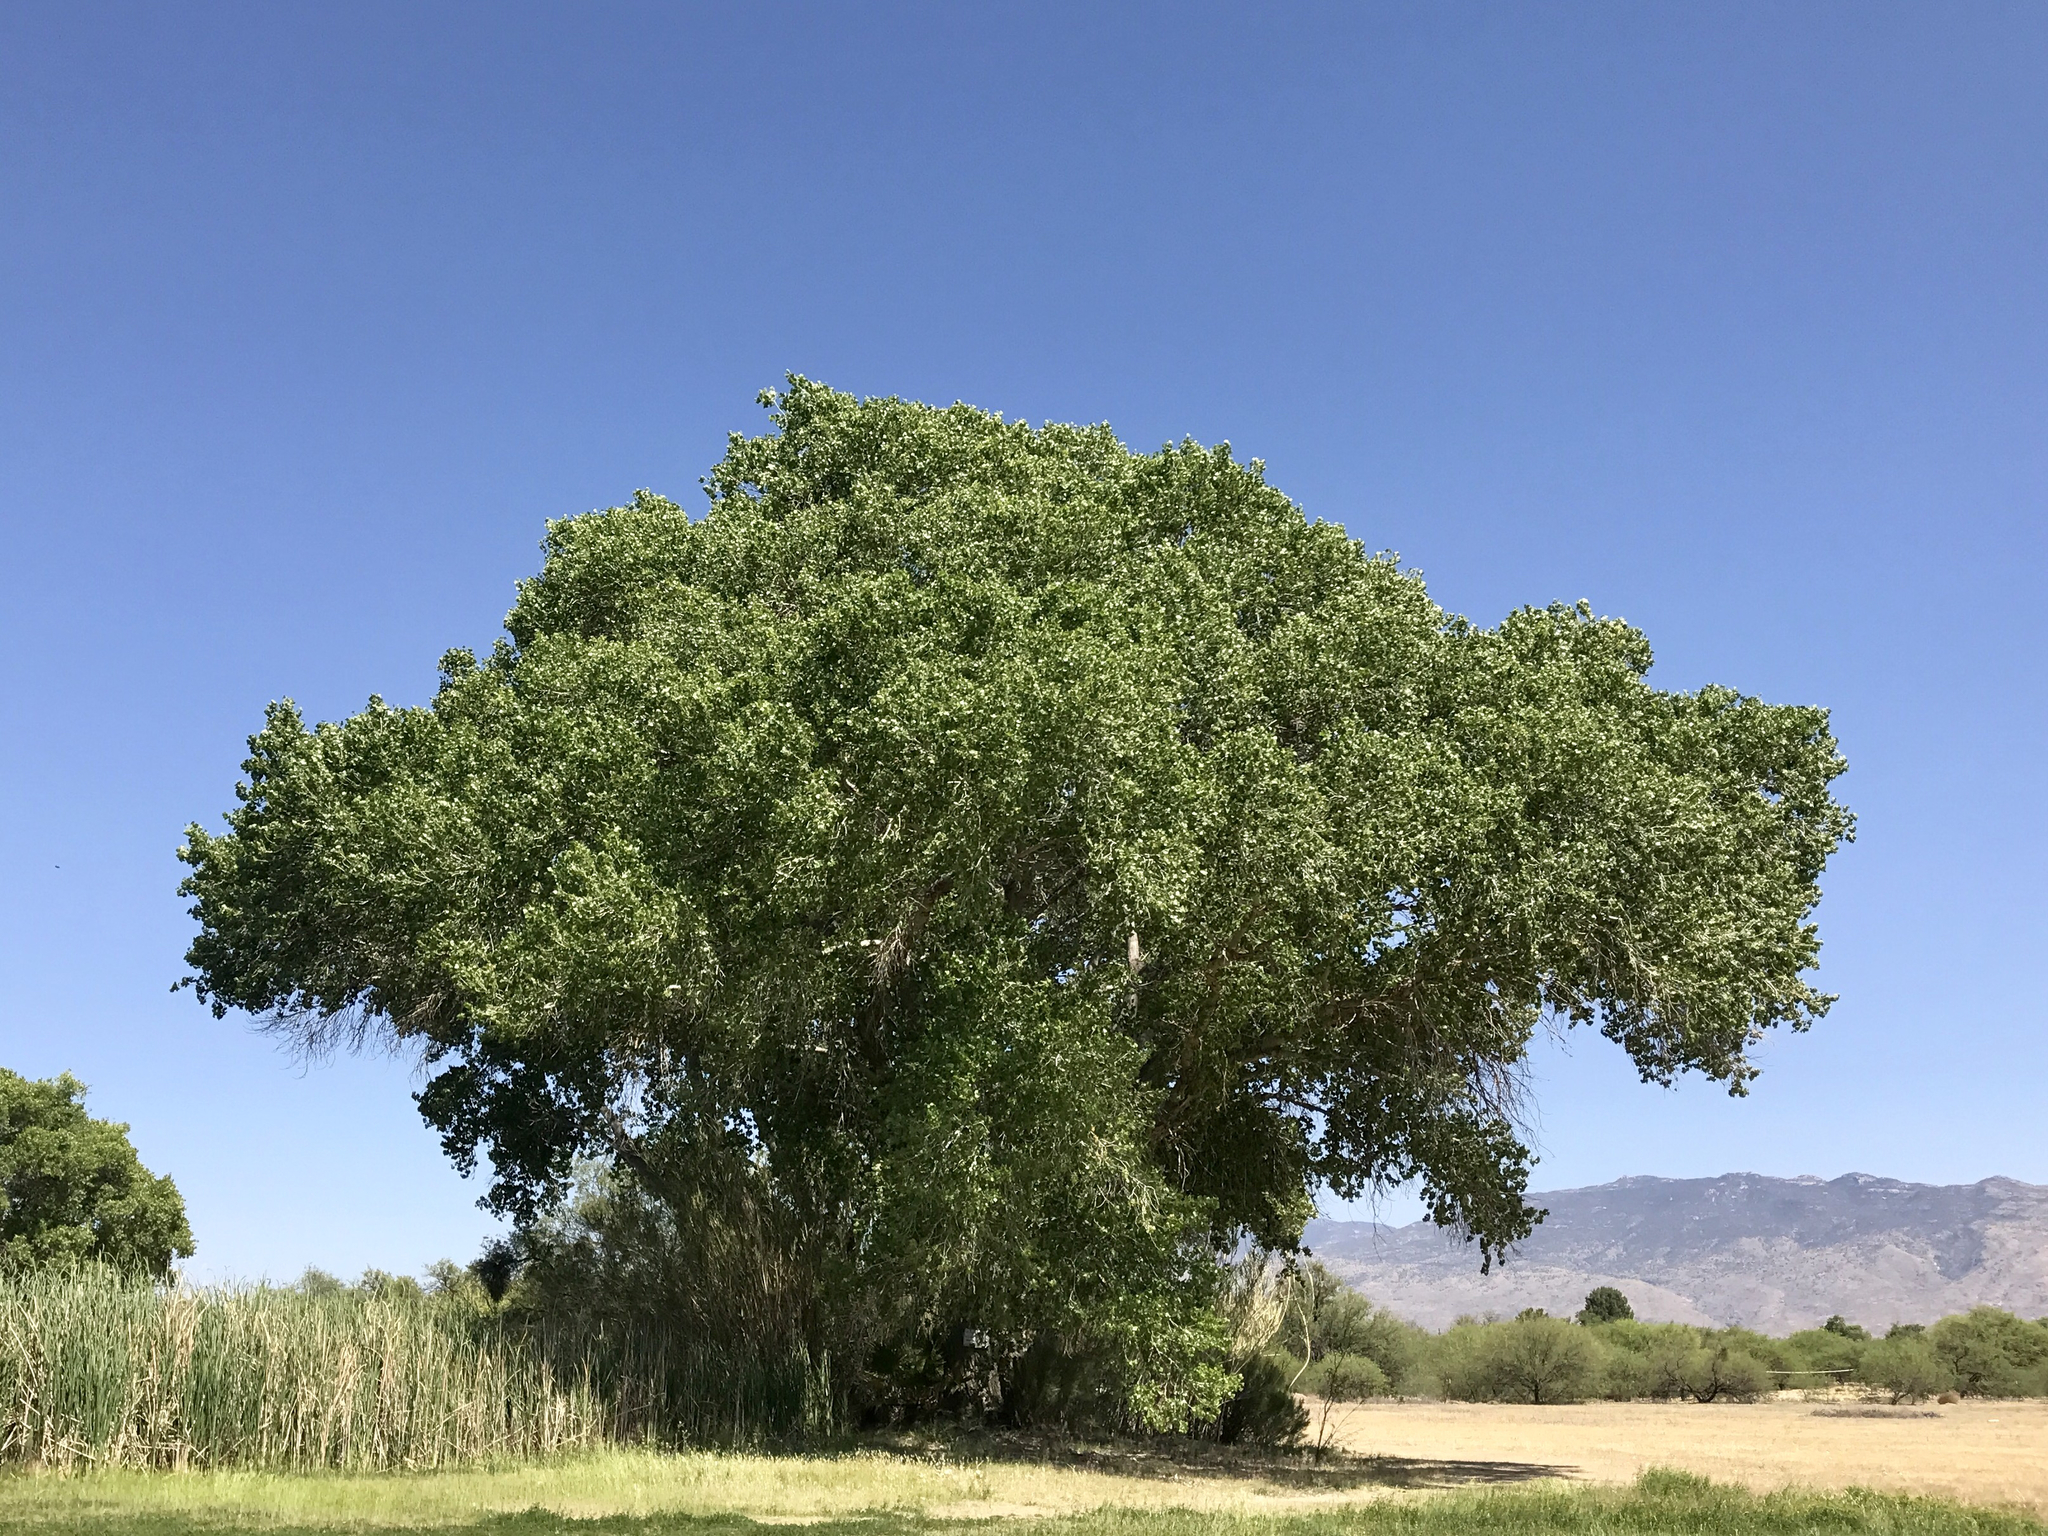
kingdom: Plantae
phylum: Tracheophyta
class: Magnoliopsida
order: Malpighiales
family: Salicaceae
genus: Populus
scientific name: Populus fremontii
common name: Fremont's cottonwood
